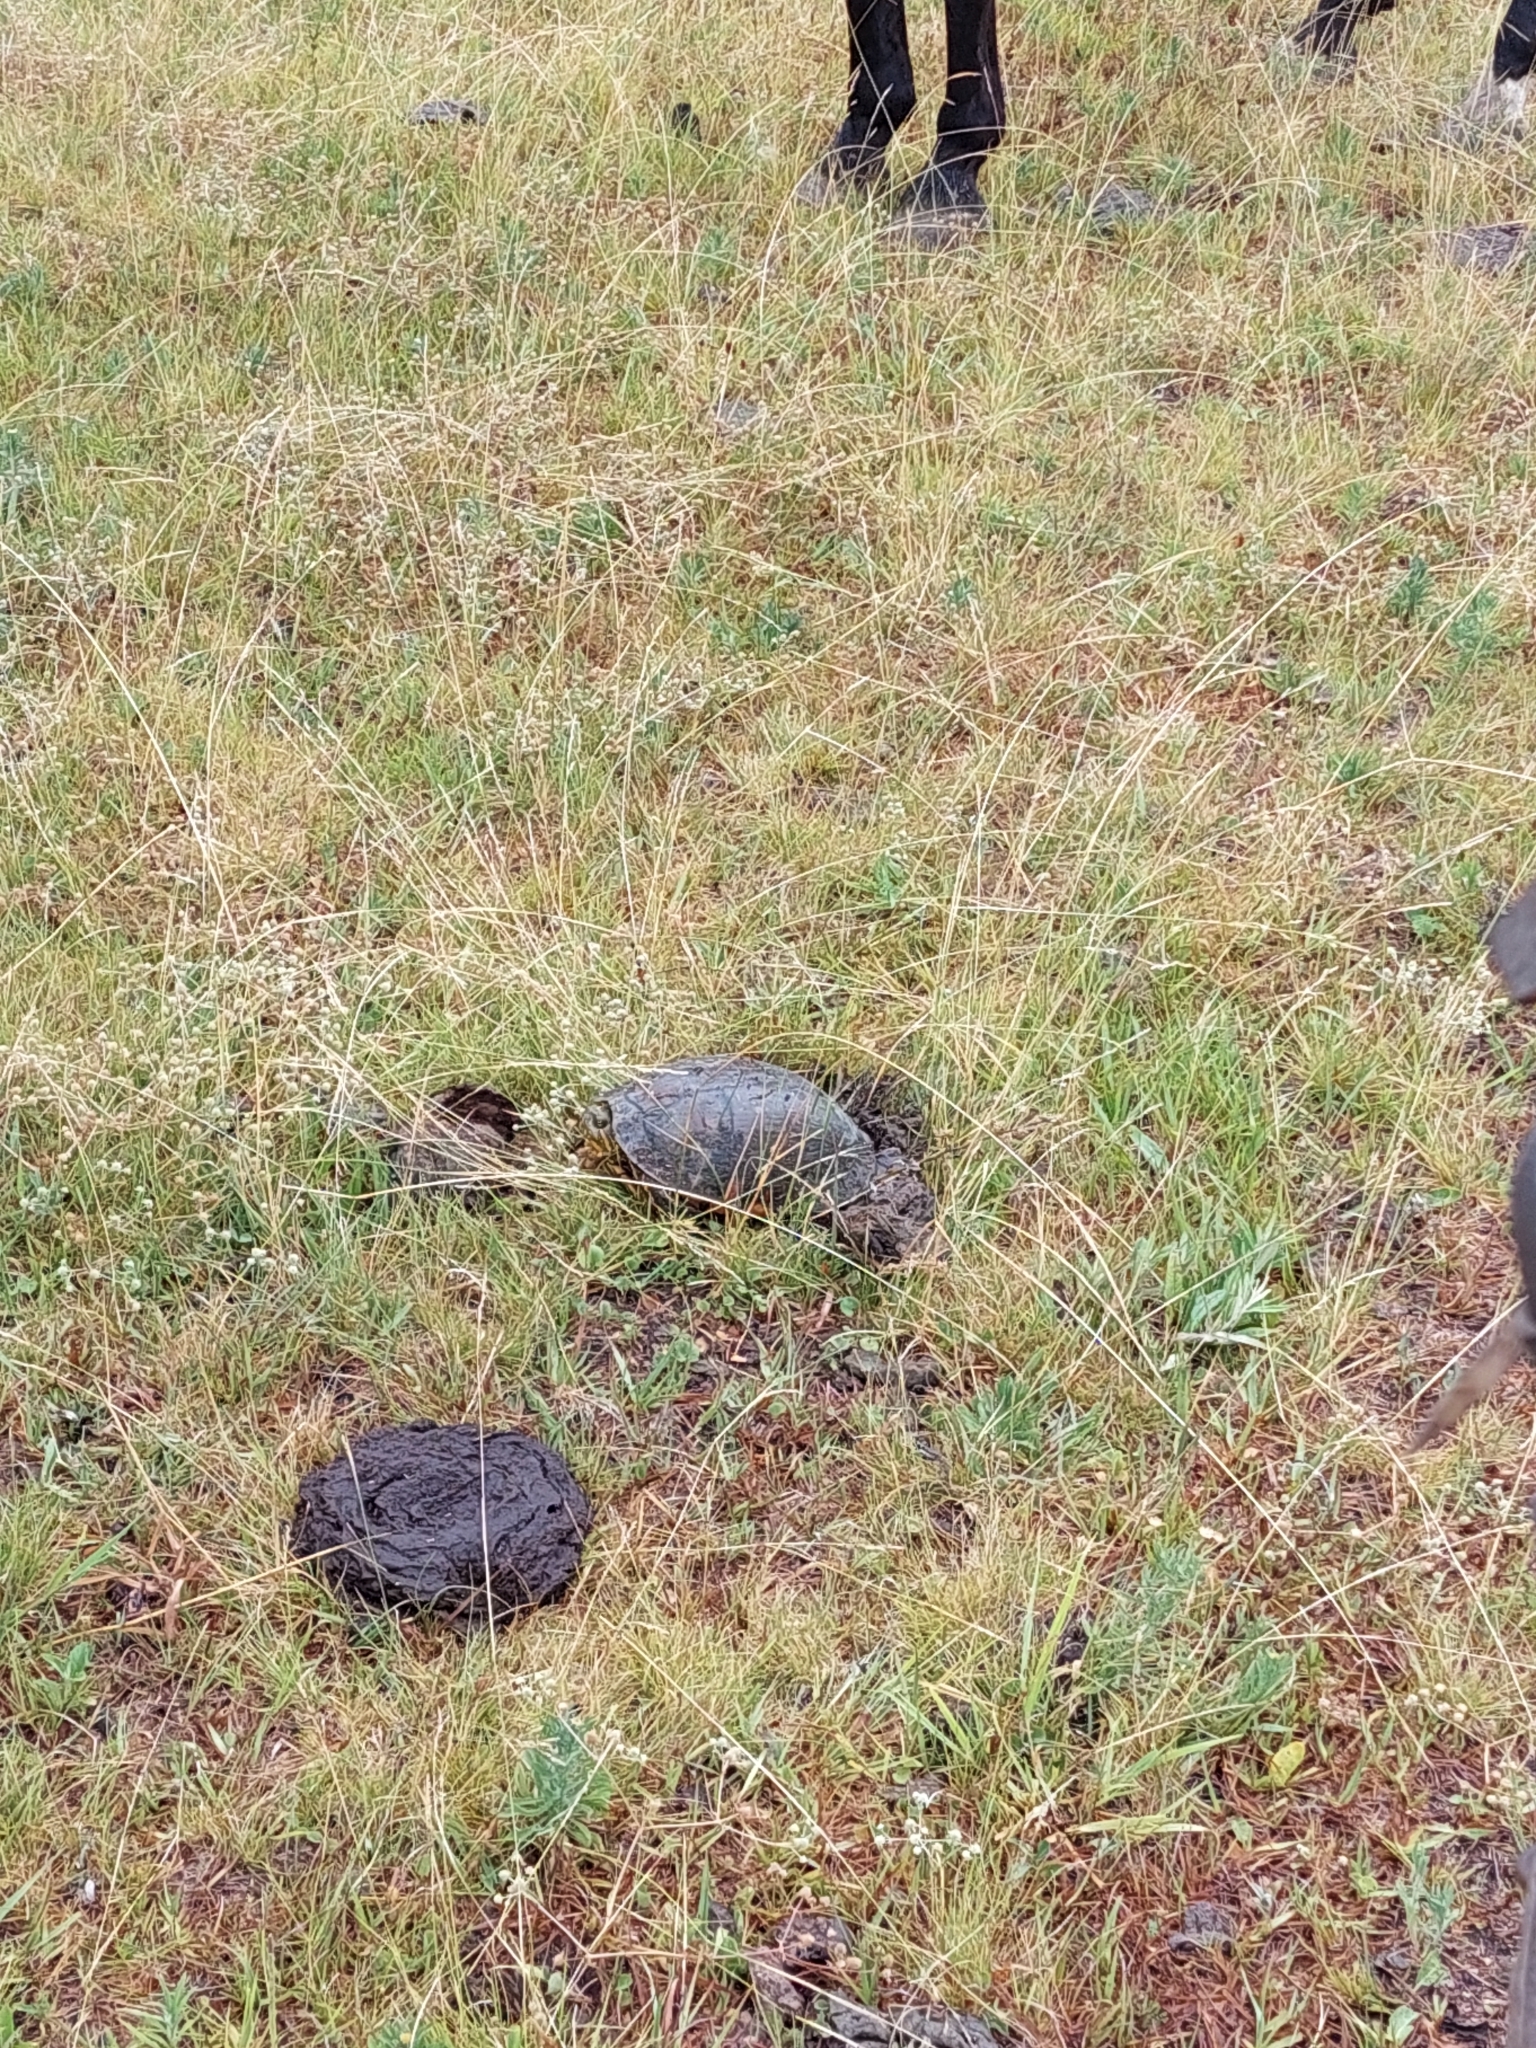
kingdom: Animalia
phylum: Chordata
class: Testudines
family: Emydidae
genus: Trachemys
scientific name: Trachemys dorbigni
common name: Black-bellied slider
